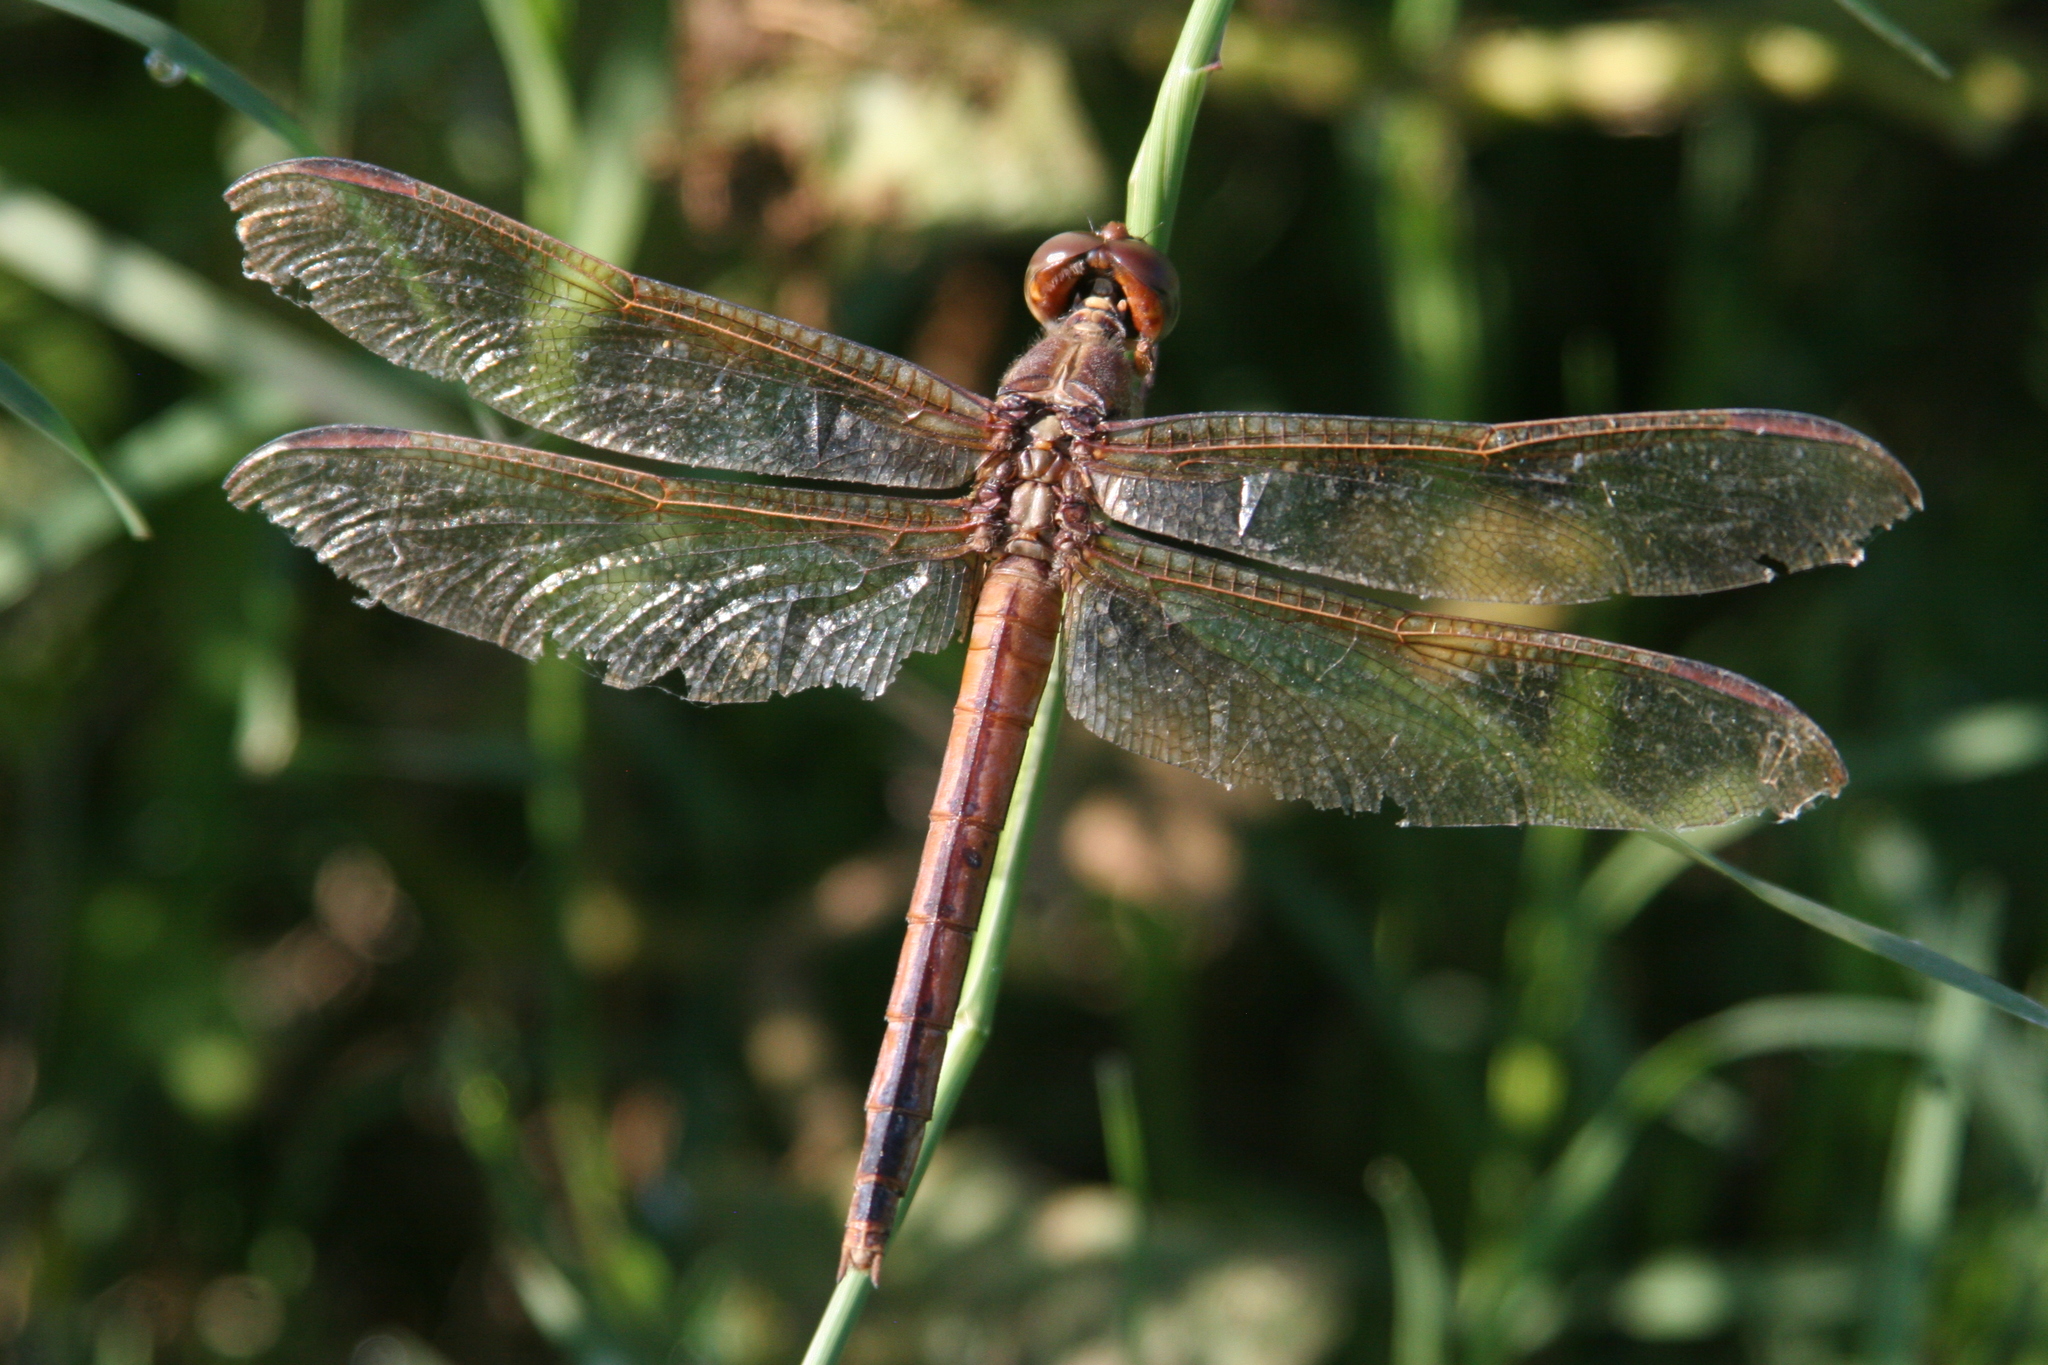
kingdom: Animalia
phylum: Arthropoda
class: Insecta
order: Odonata
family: Libellulidae
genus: Libellula
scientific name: Libellula needhami
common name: Needham's skimmer
